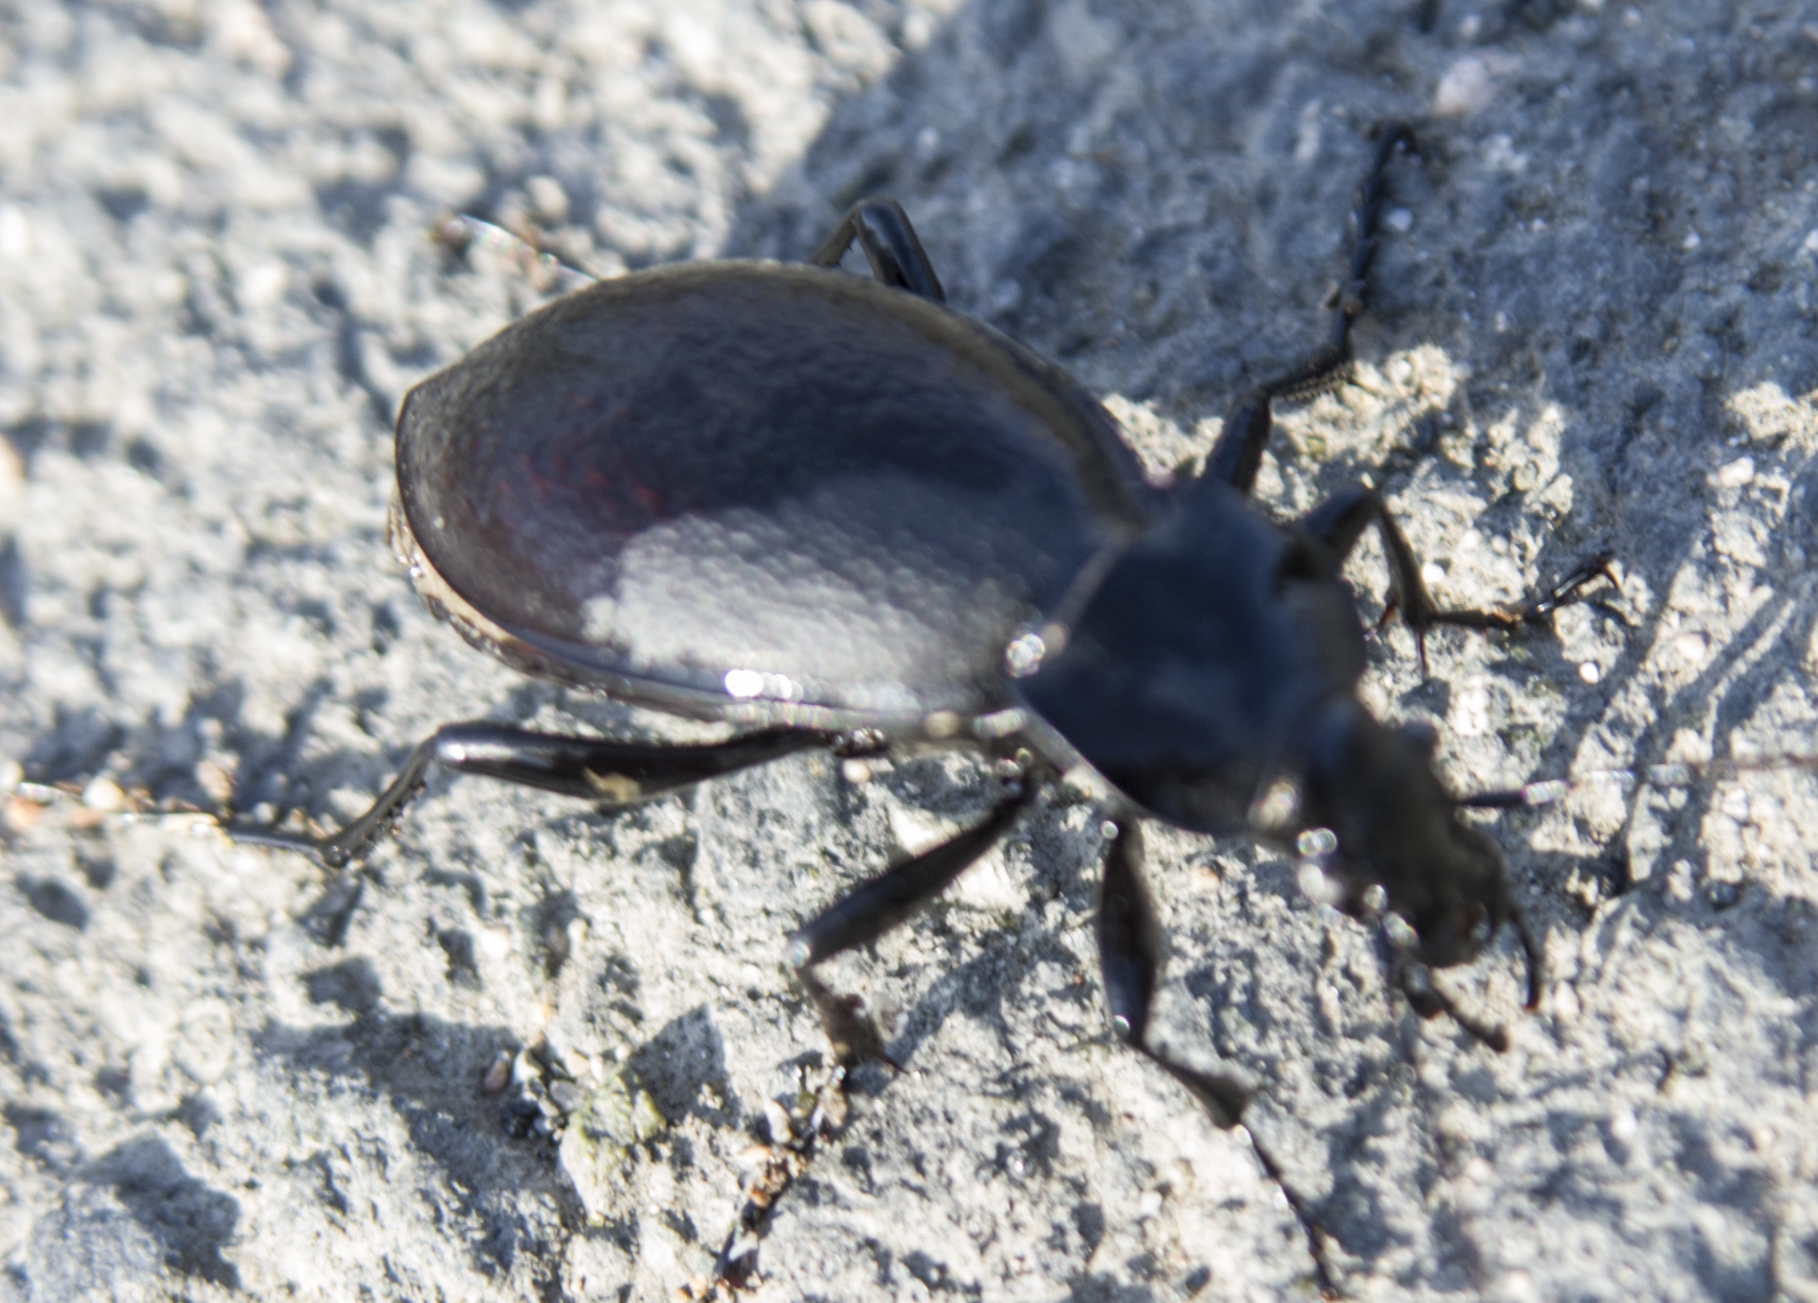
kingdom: Animalia
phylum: Arthropoda
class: Insecta
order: Coleoptera
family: Carabidae
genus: Carabus
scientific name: Carabus coriaceus
